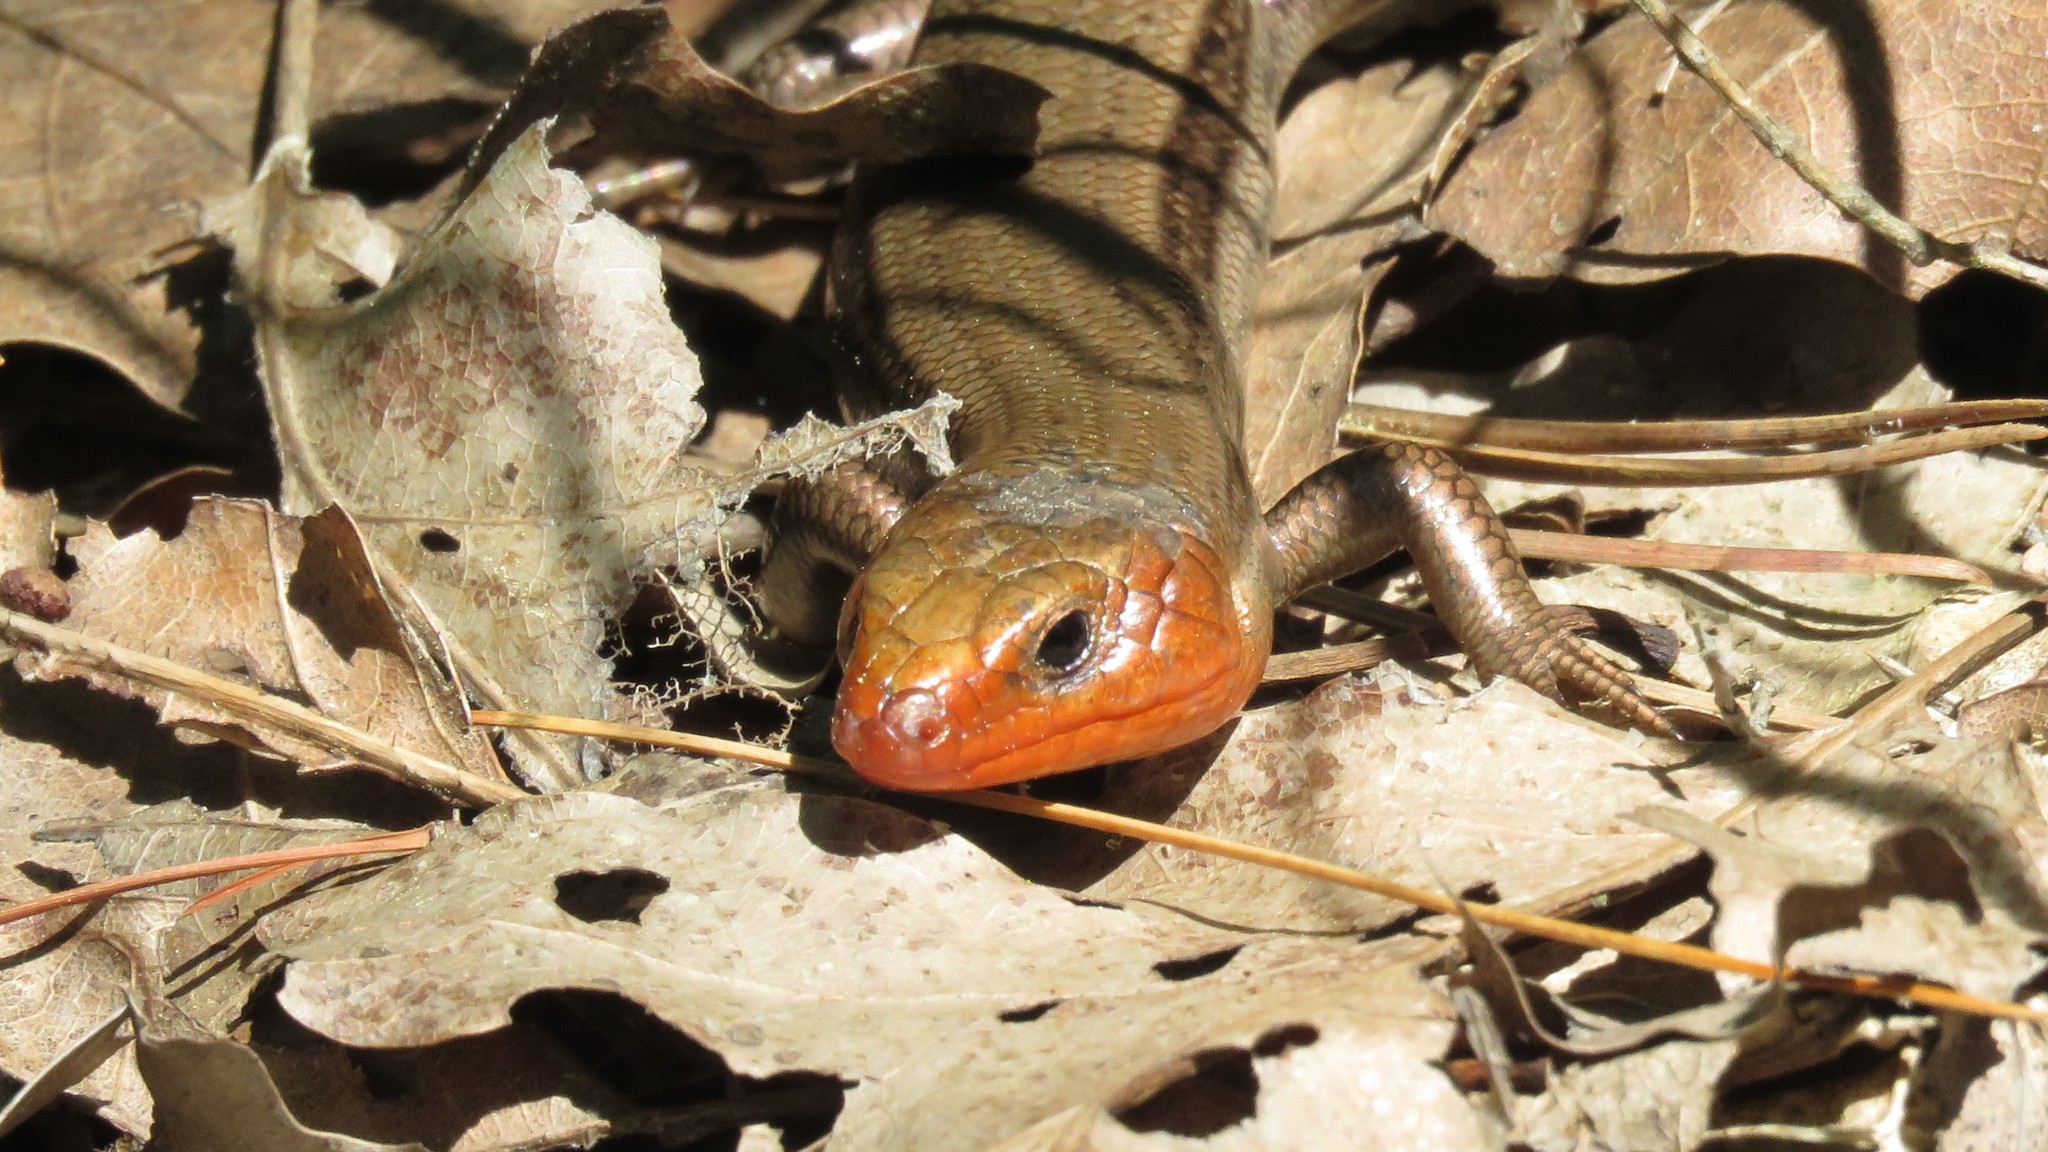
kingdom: Animalia
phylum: Chordata
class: Squamata
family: Scincidae
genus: Plestiodon
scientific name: Plestiodon fasciatus
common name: Five-lined skink
